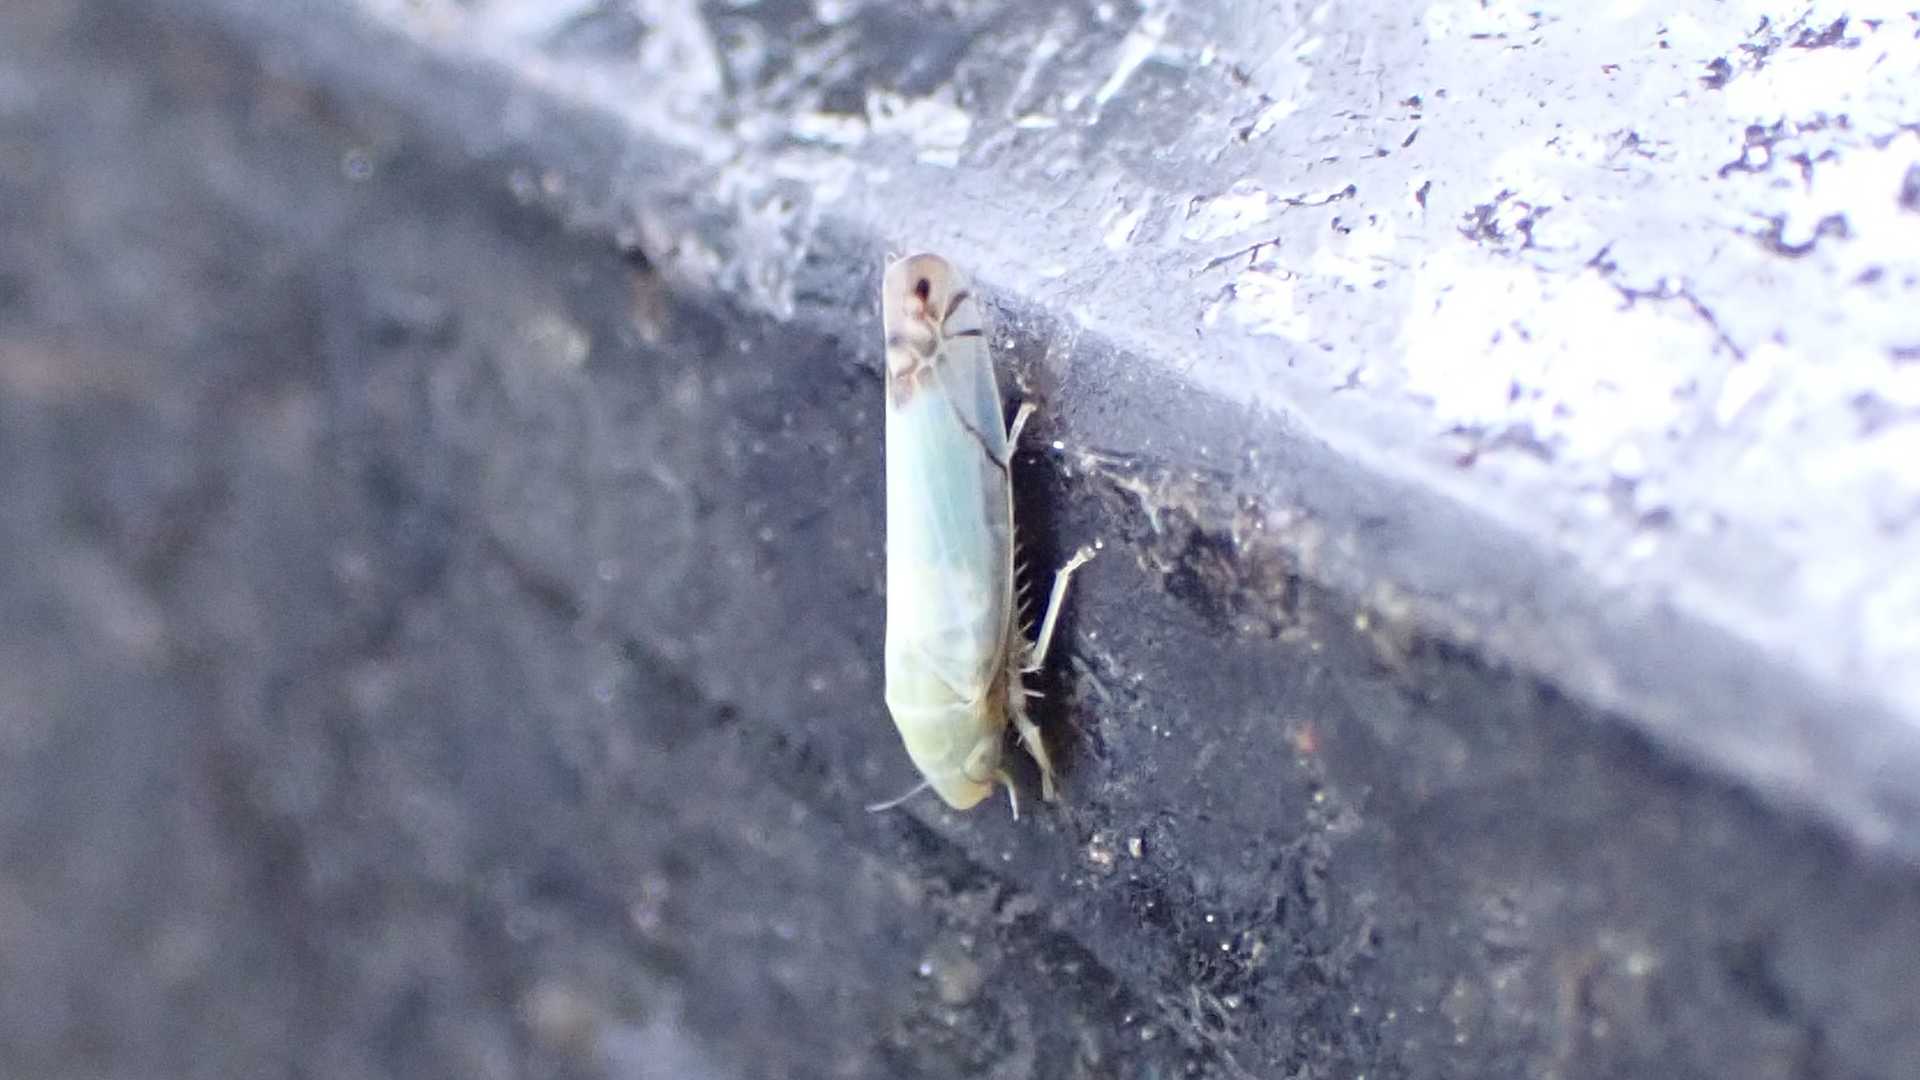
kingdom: Animalia
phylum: Arthropoda
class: Insecta
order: Hemiptera
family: Cicadellidae
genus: Zyginella
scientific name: Zyginella pulchra
